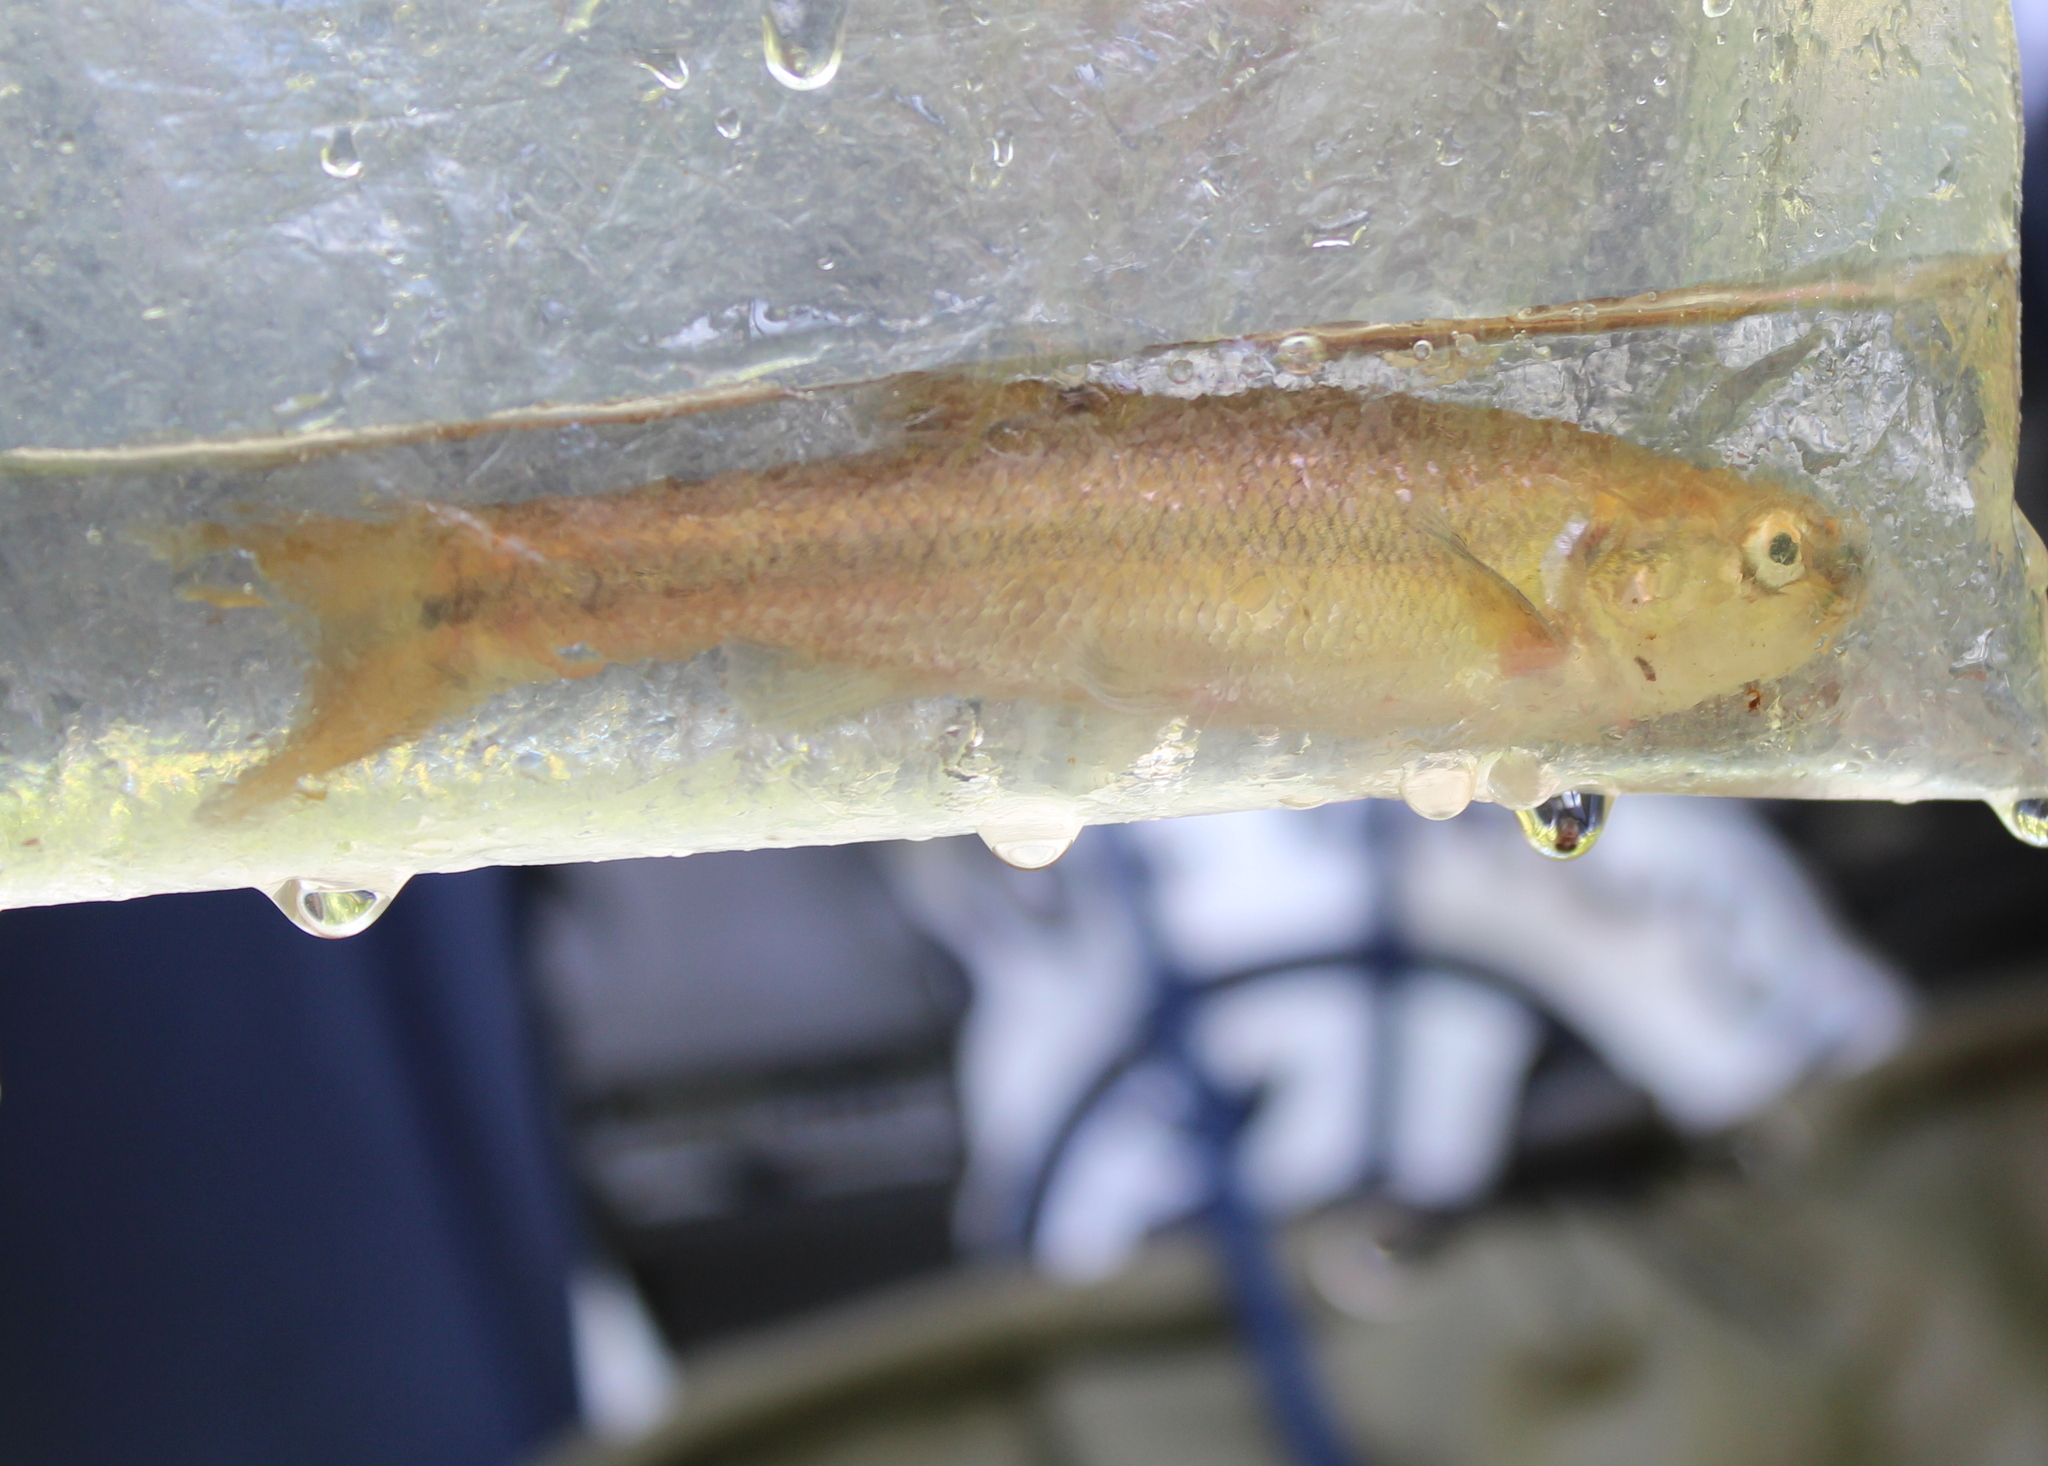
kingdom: Animalia
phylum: Chordata
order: Cypriniformes
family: Cyprinidae
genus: Semotilus
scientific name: Semotilus atromaculatus
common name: Creek chub
